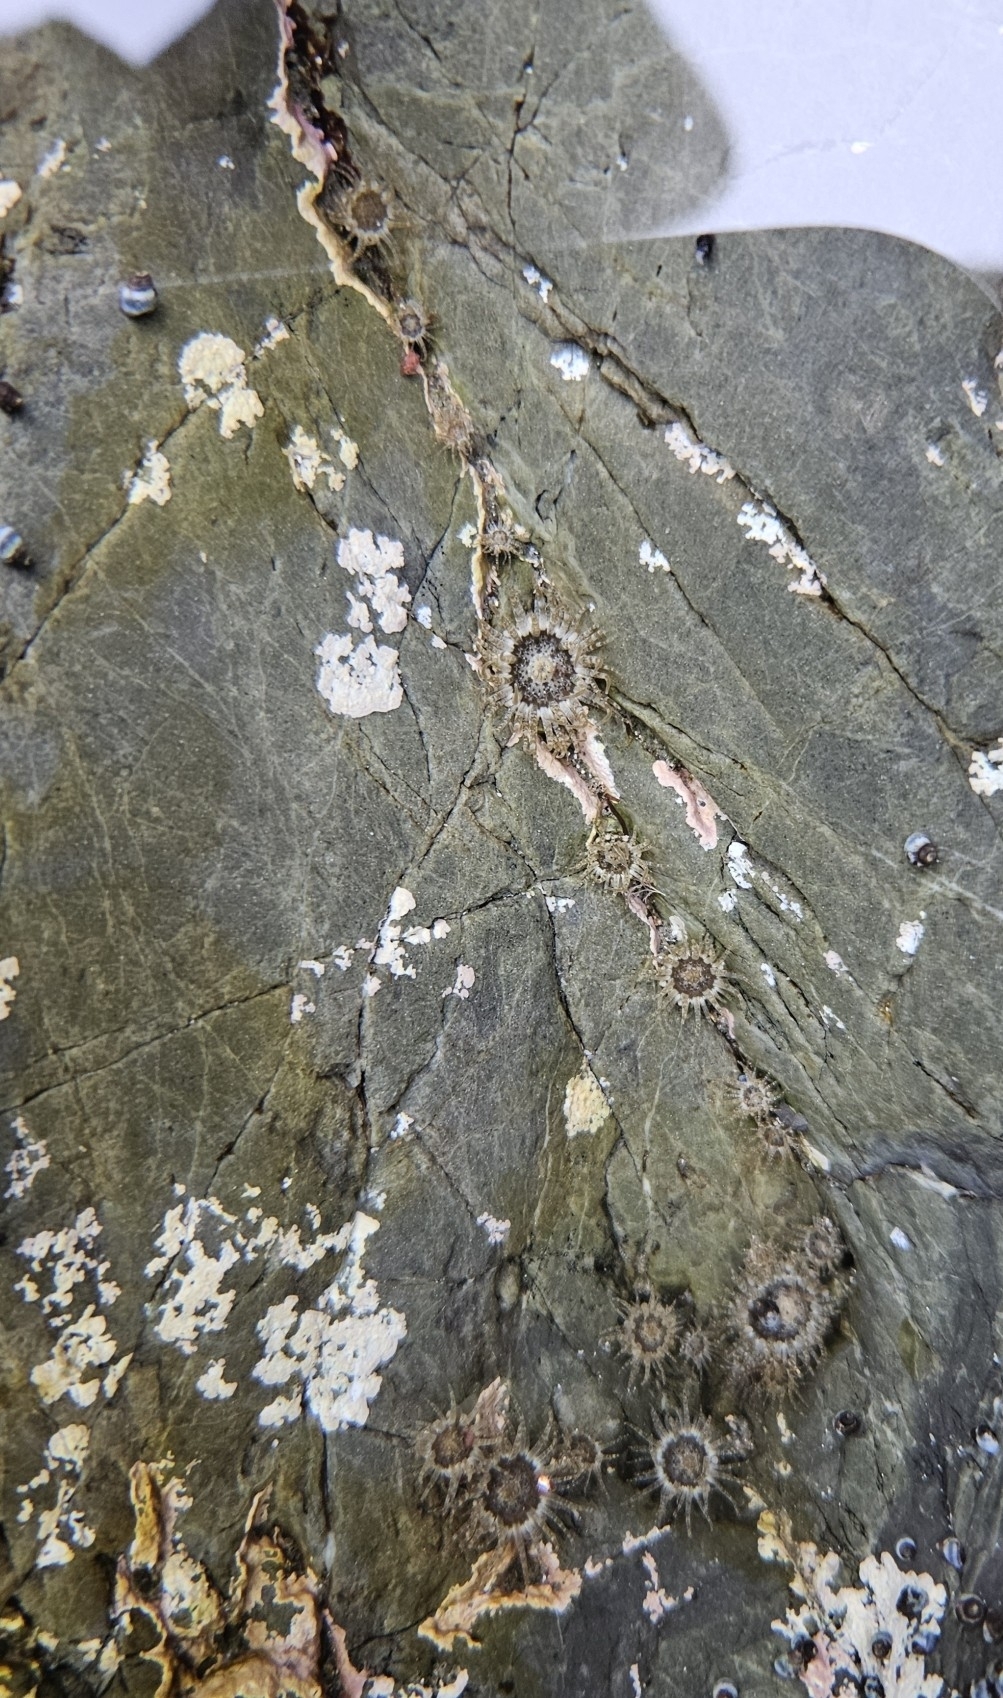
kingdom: Animalia
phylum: Cnidaria
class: Anthozoa
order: Actiniaria
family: Actiniidae
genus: Anthopleura
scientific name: Anthopleura hermaphroditica
